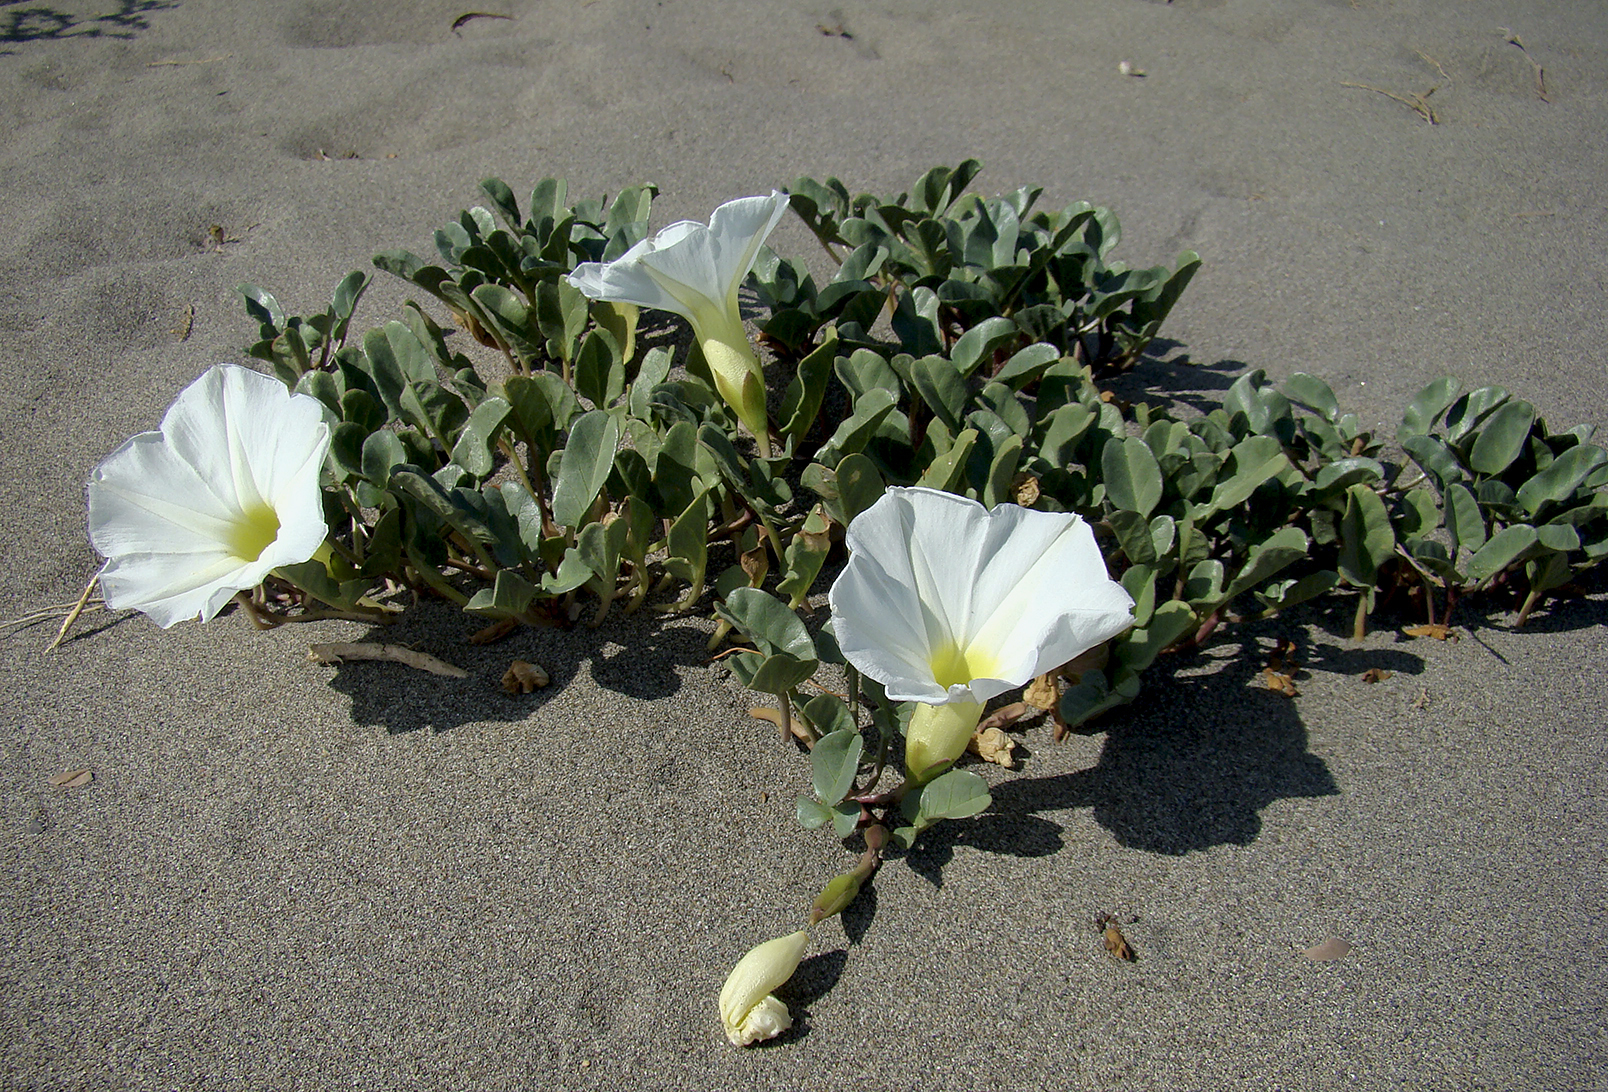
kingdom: Plantae
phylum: Tracheophyta
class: Magnoliopsida
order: Solanales
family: Convolvulaceae
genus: Ipomoea
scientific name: Ipomoea imperati
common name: Fiddle-leaf morning-glory
